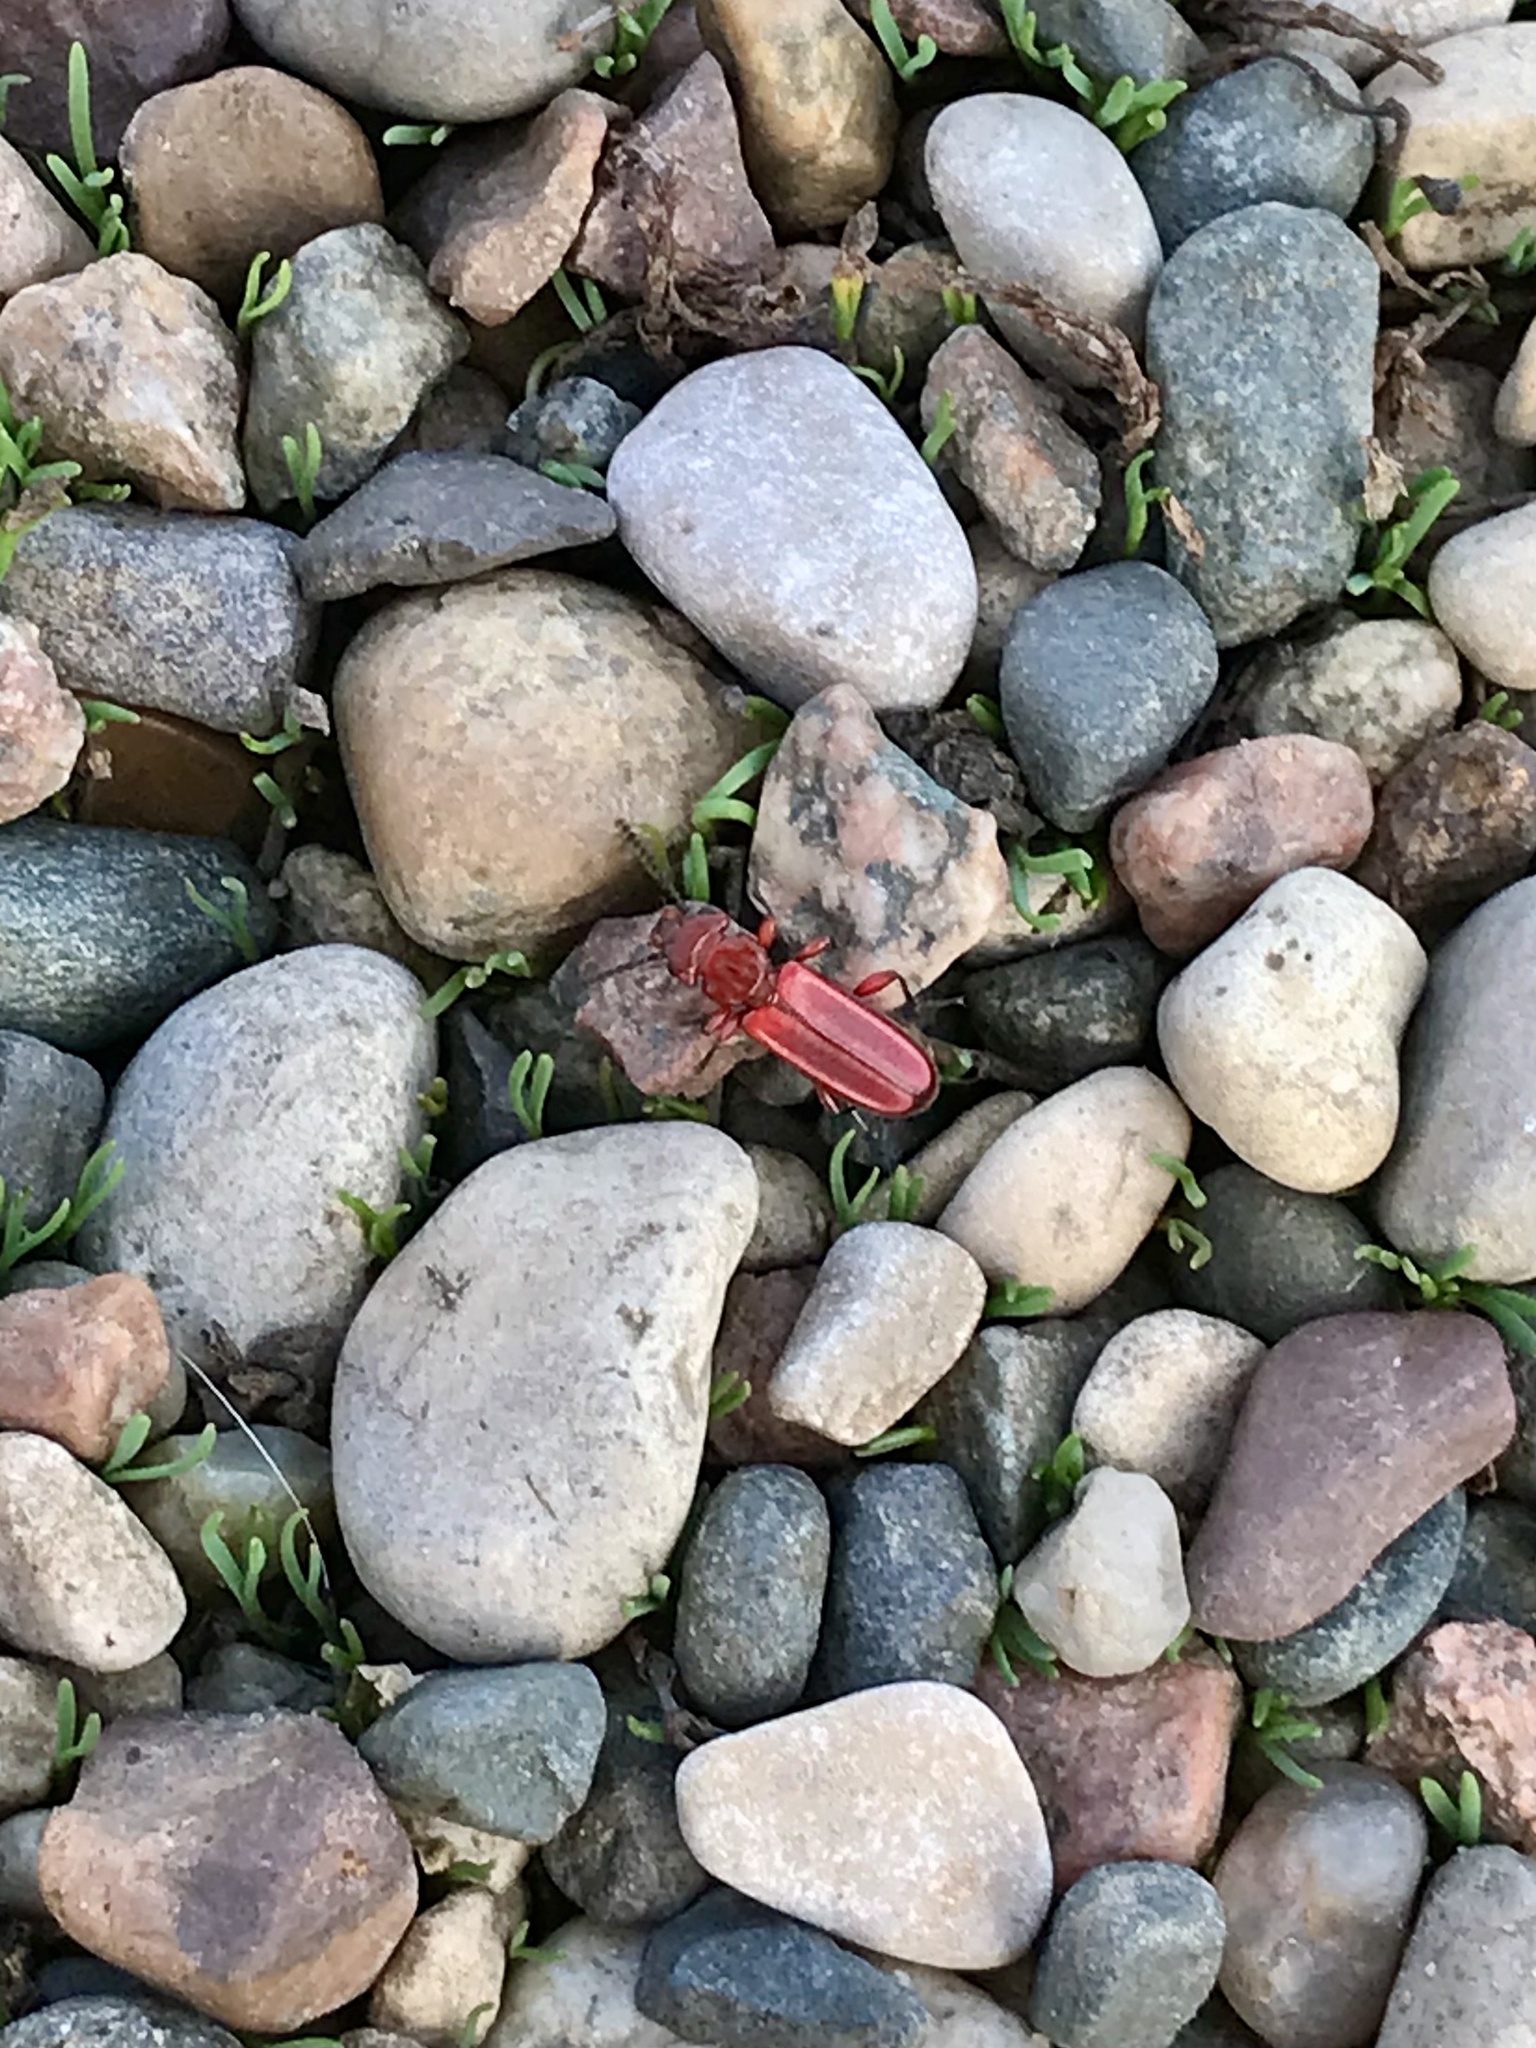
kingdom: Animalia
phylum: Arthropoda
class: Insecta
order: Coleoptera
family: Cucujidae
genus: Cucujus
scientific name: Cucujus clavipes
